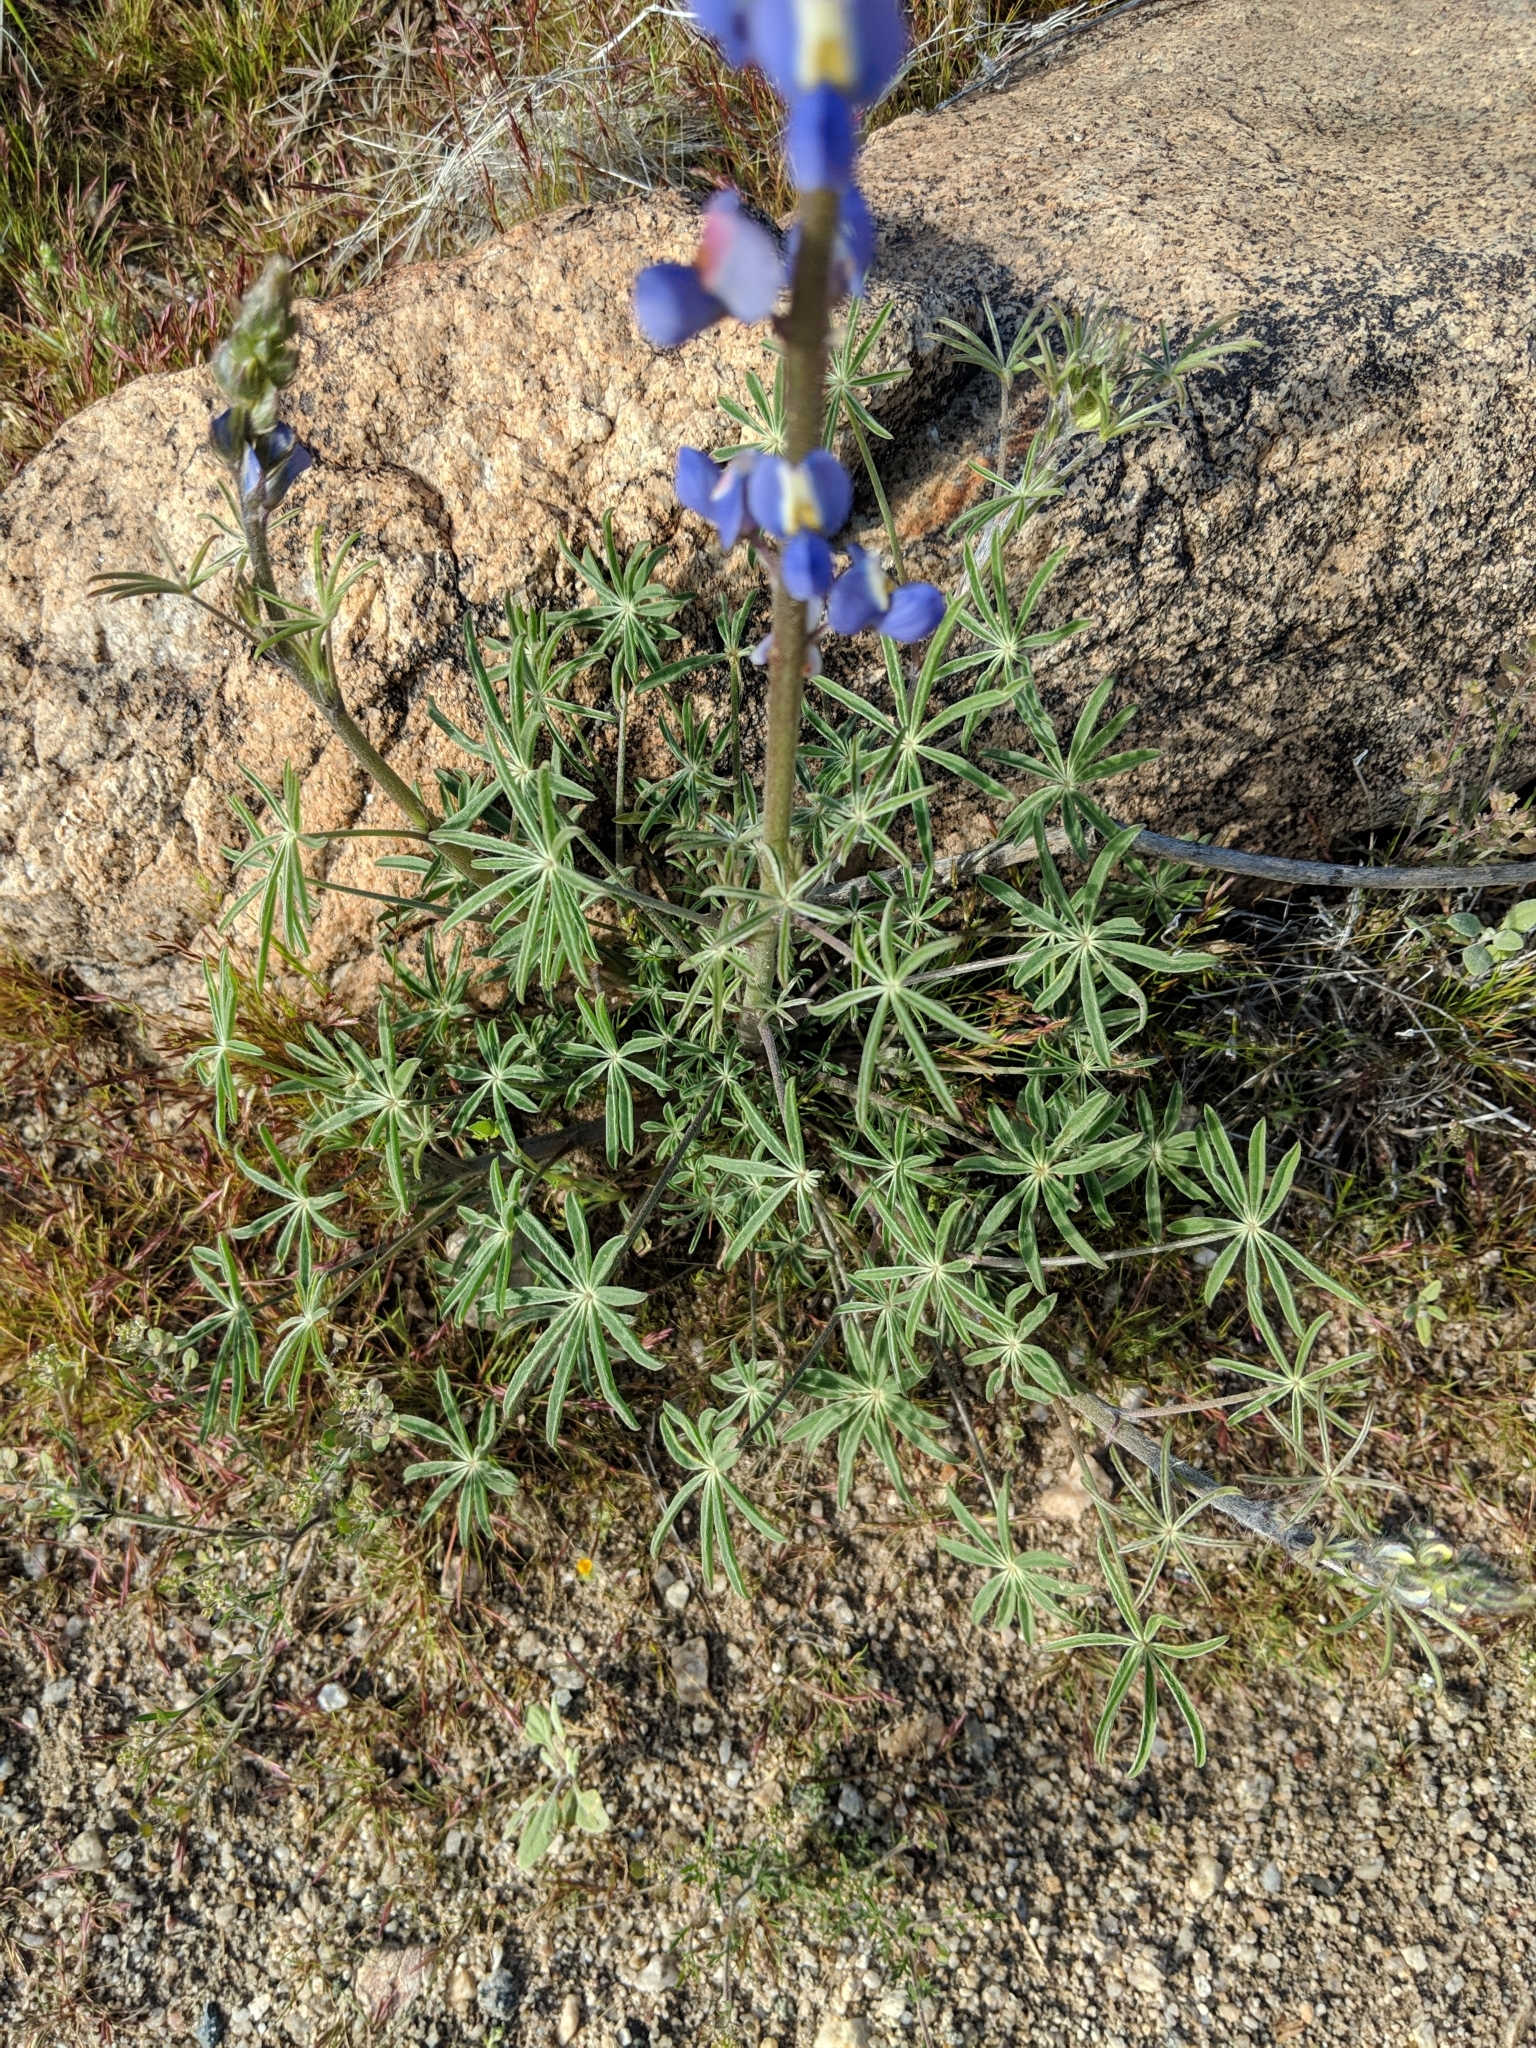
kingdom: Plantae
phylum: Tracheophyta
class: Magnoliopsida
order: Fabales
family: Fabaceae
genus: Lupinus
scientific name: Lupinus sparsiflorus
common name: Coulter's lupine
